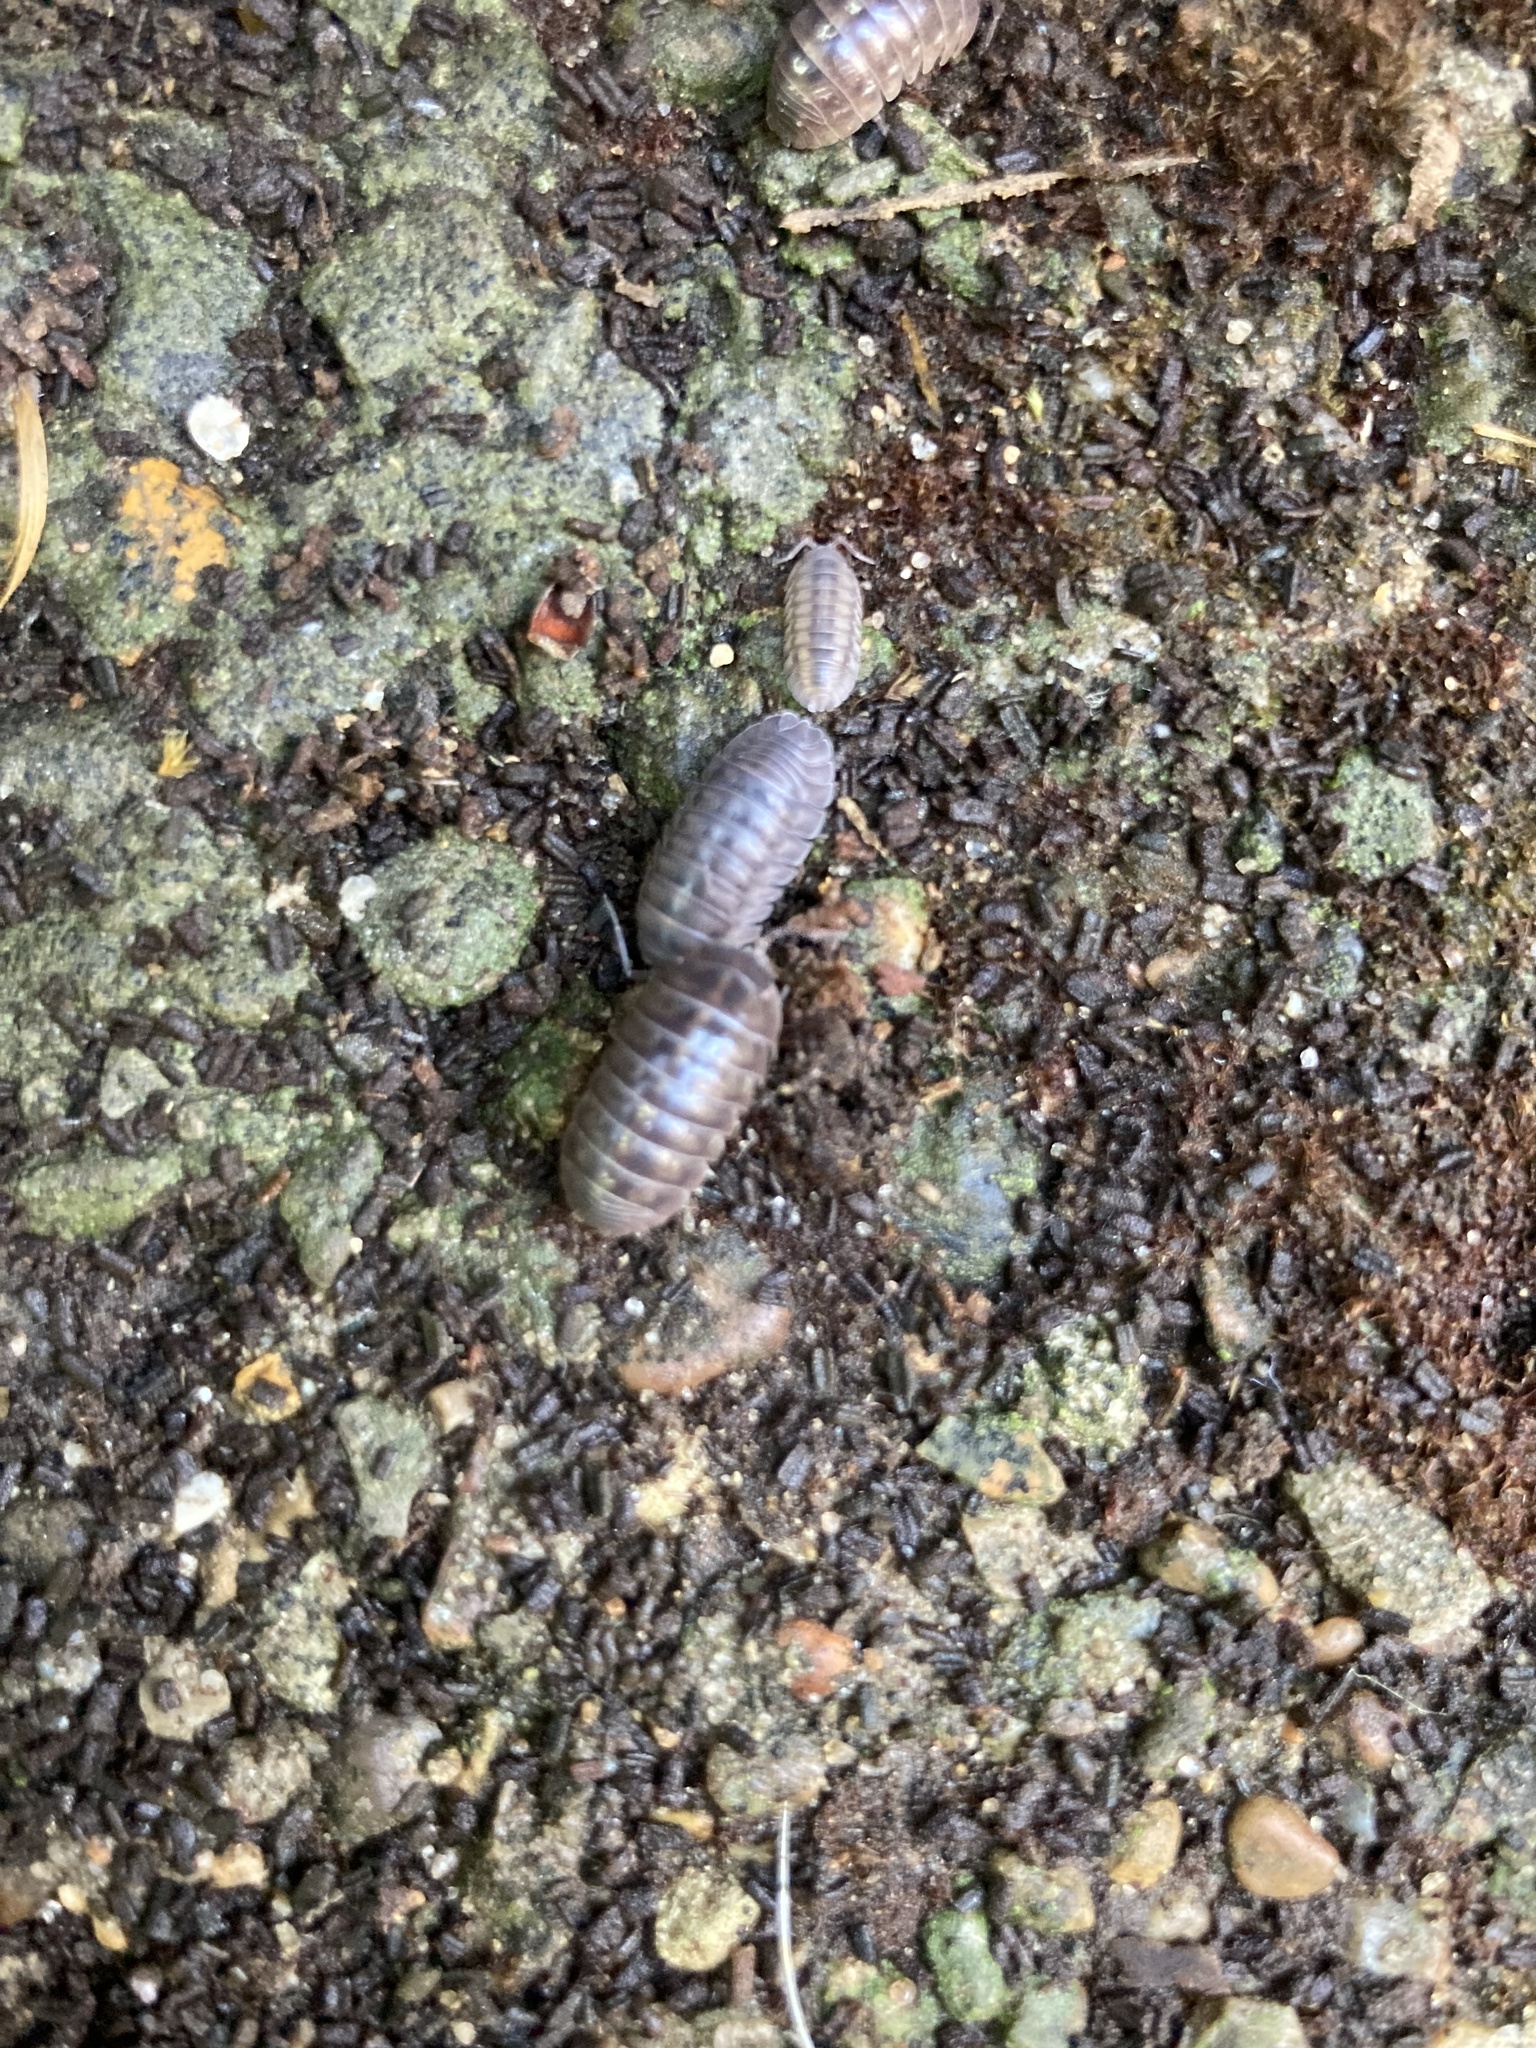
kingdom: Animalia
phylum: Arthropoda
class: Malacostraca
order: Isopoda
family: Armadillidiidae
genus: Armadillidium
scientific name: Armadillidium vulgare
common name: Common pill woodlouse
